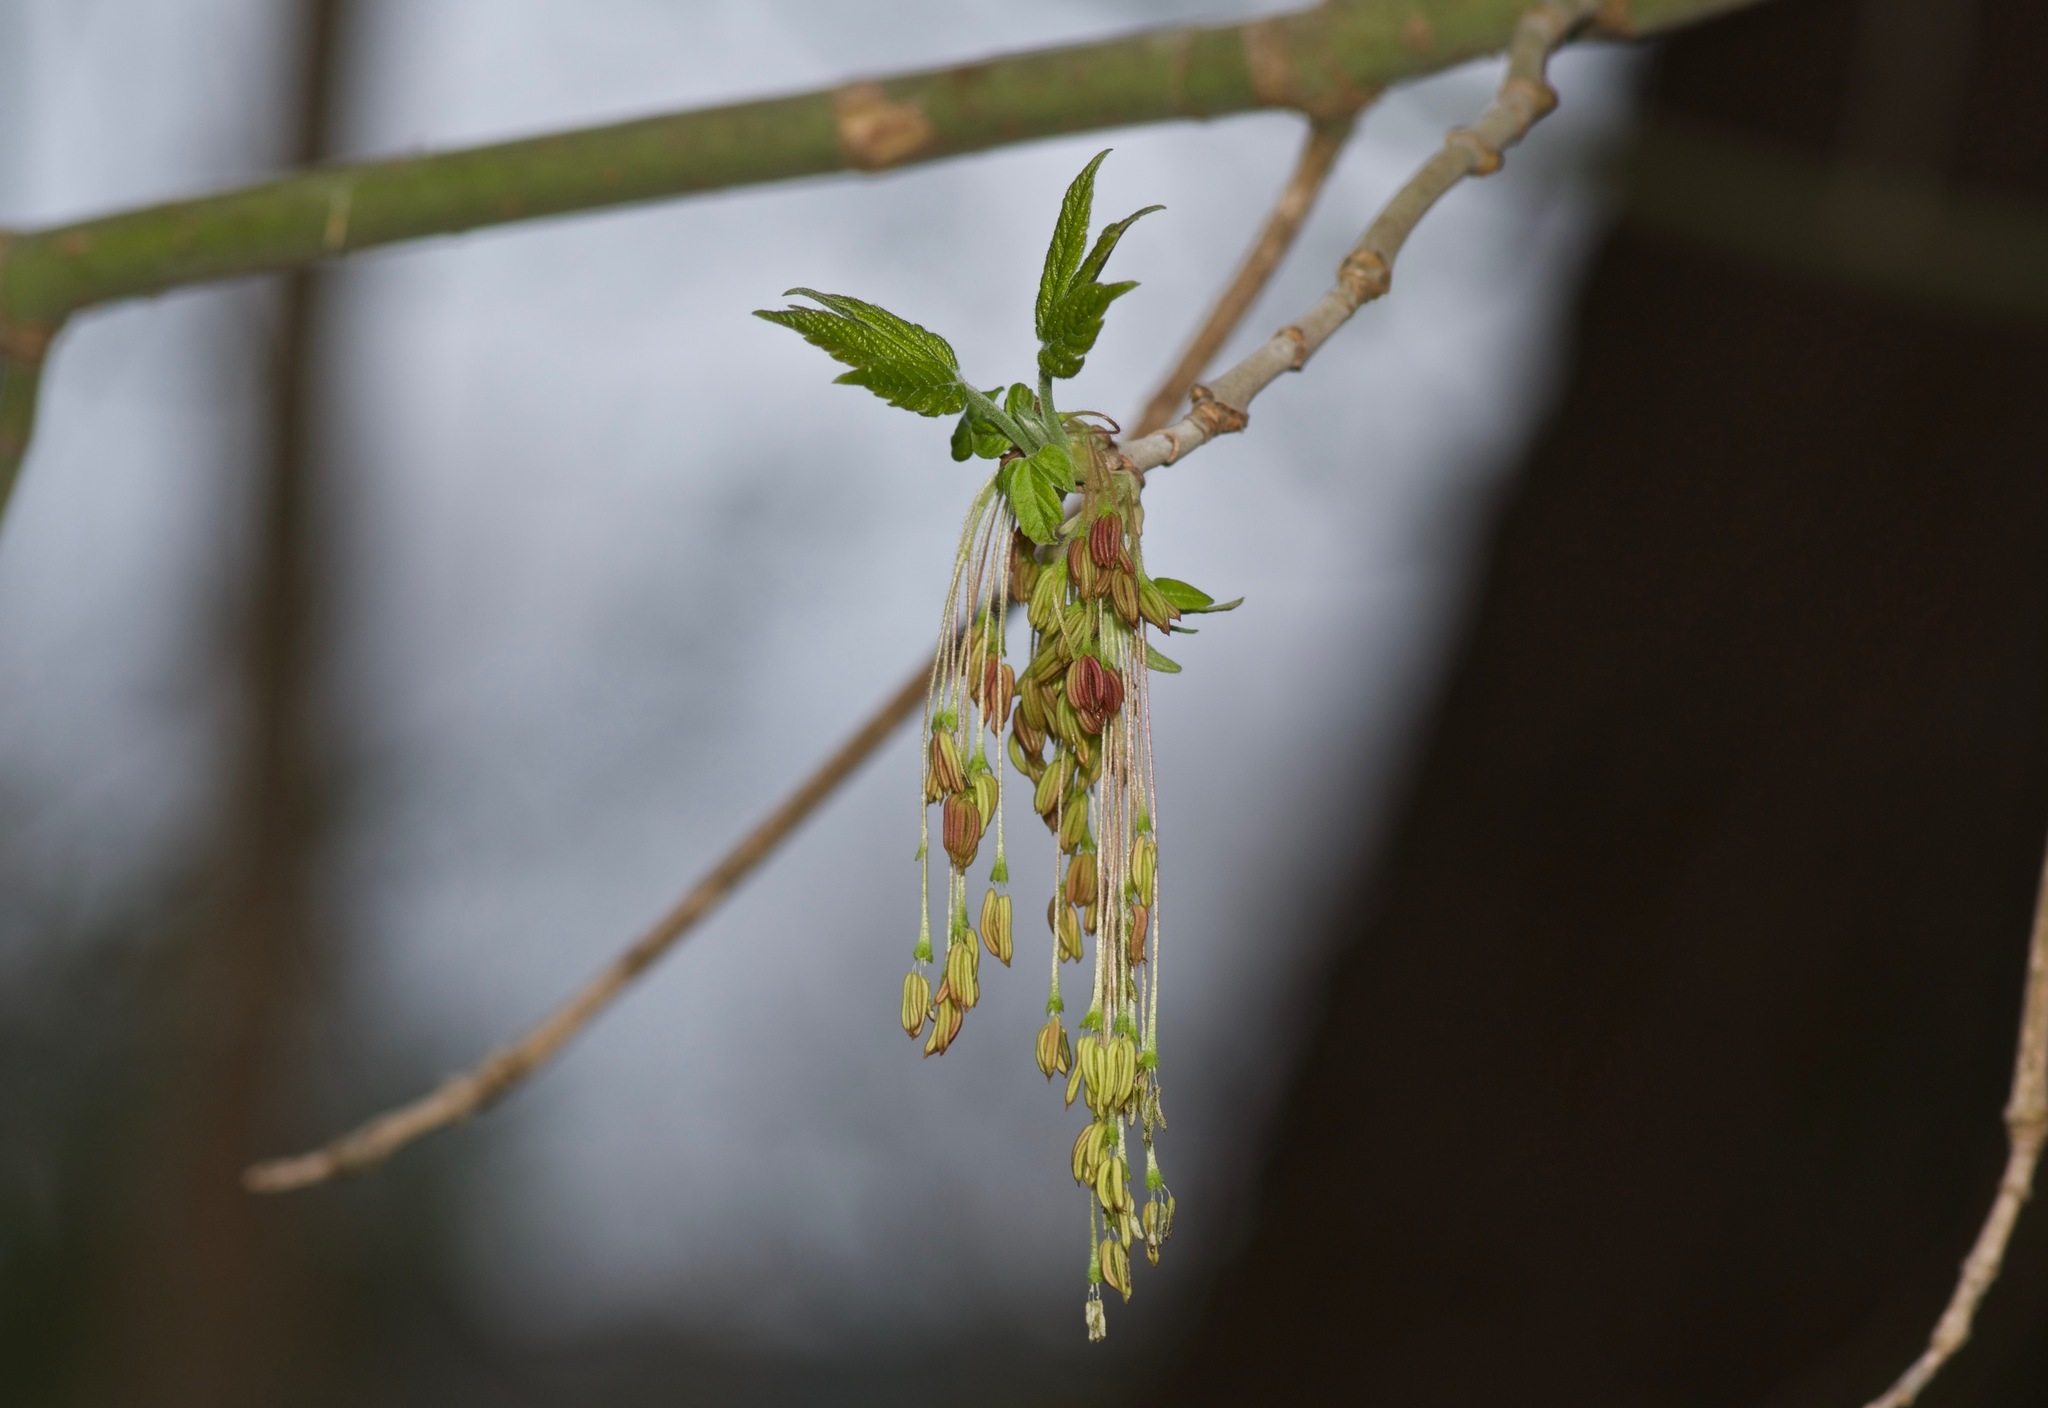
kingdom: Plantae
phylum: Tracheophyta
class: Magnoliopsida
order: Sapindales
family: Sapindaceae
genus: Acer
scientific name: Acer negundo
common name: Ashleaf maple
